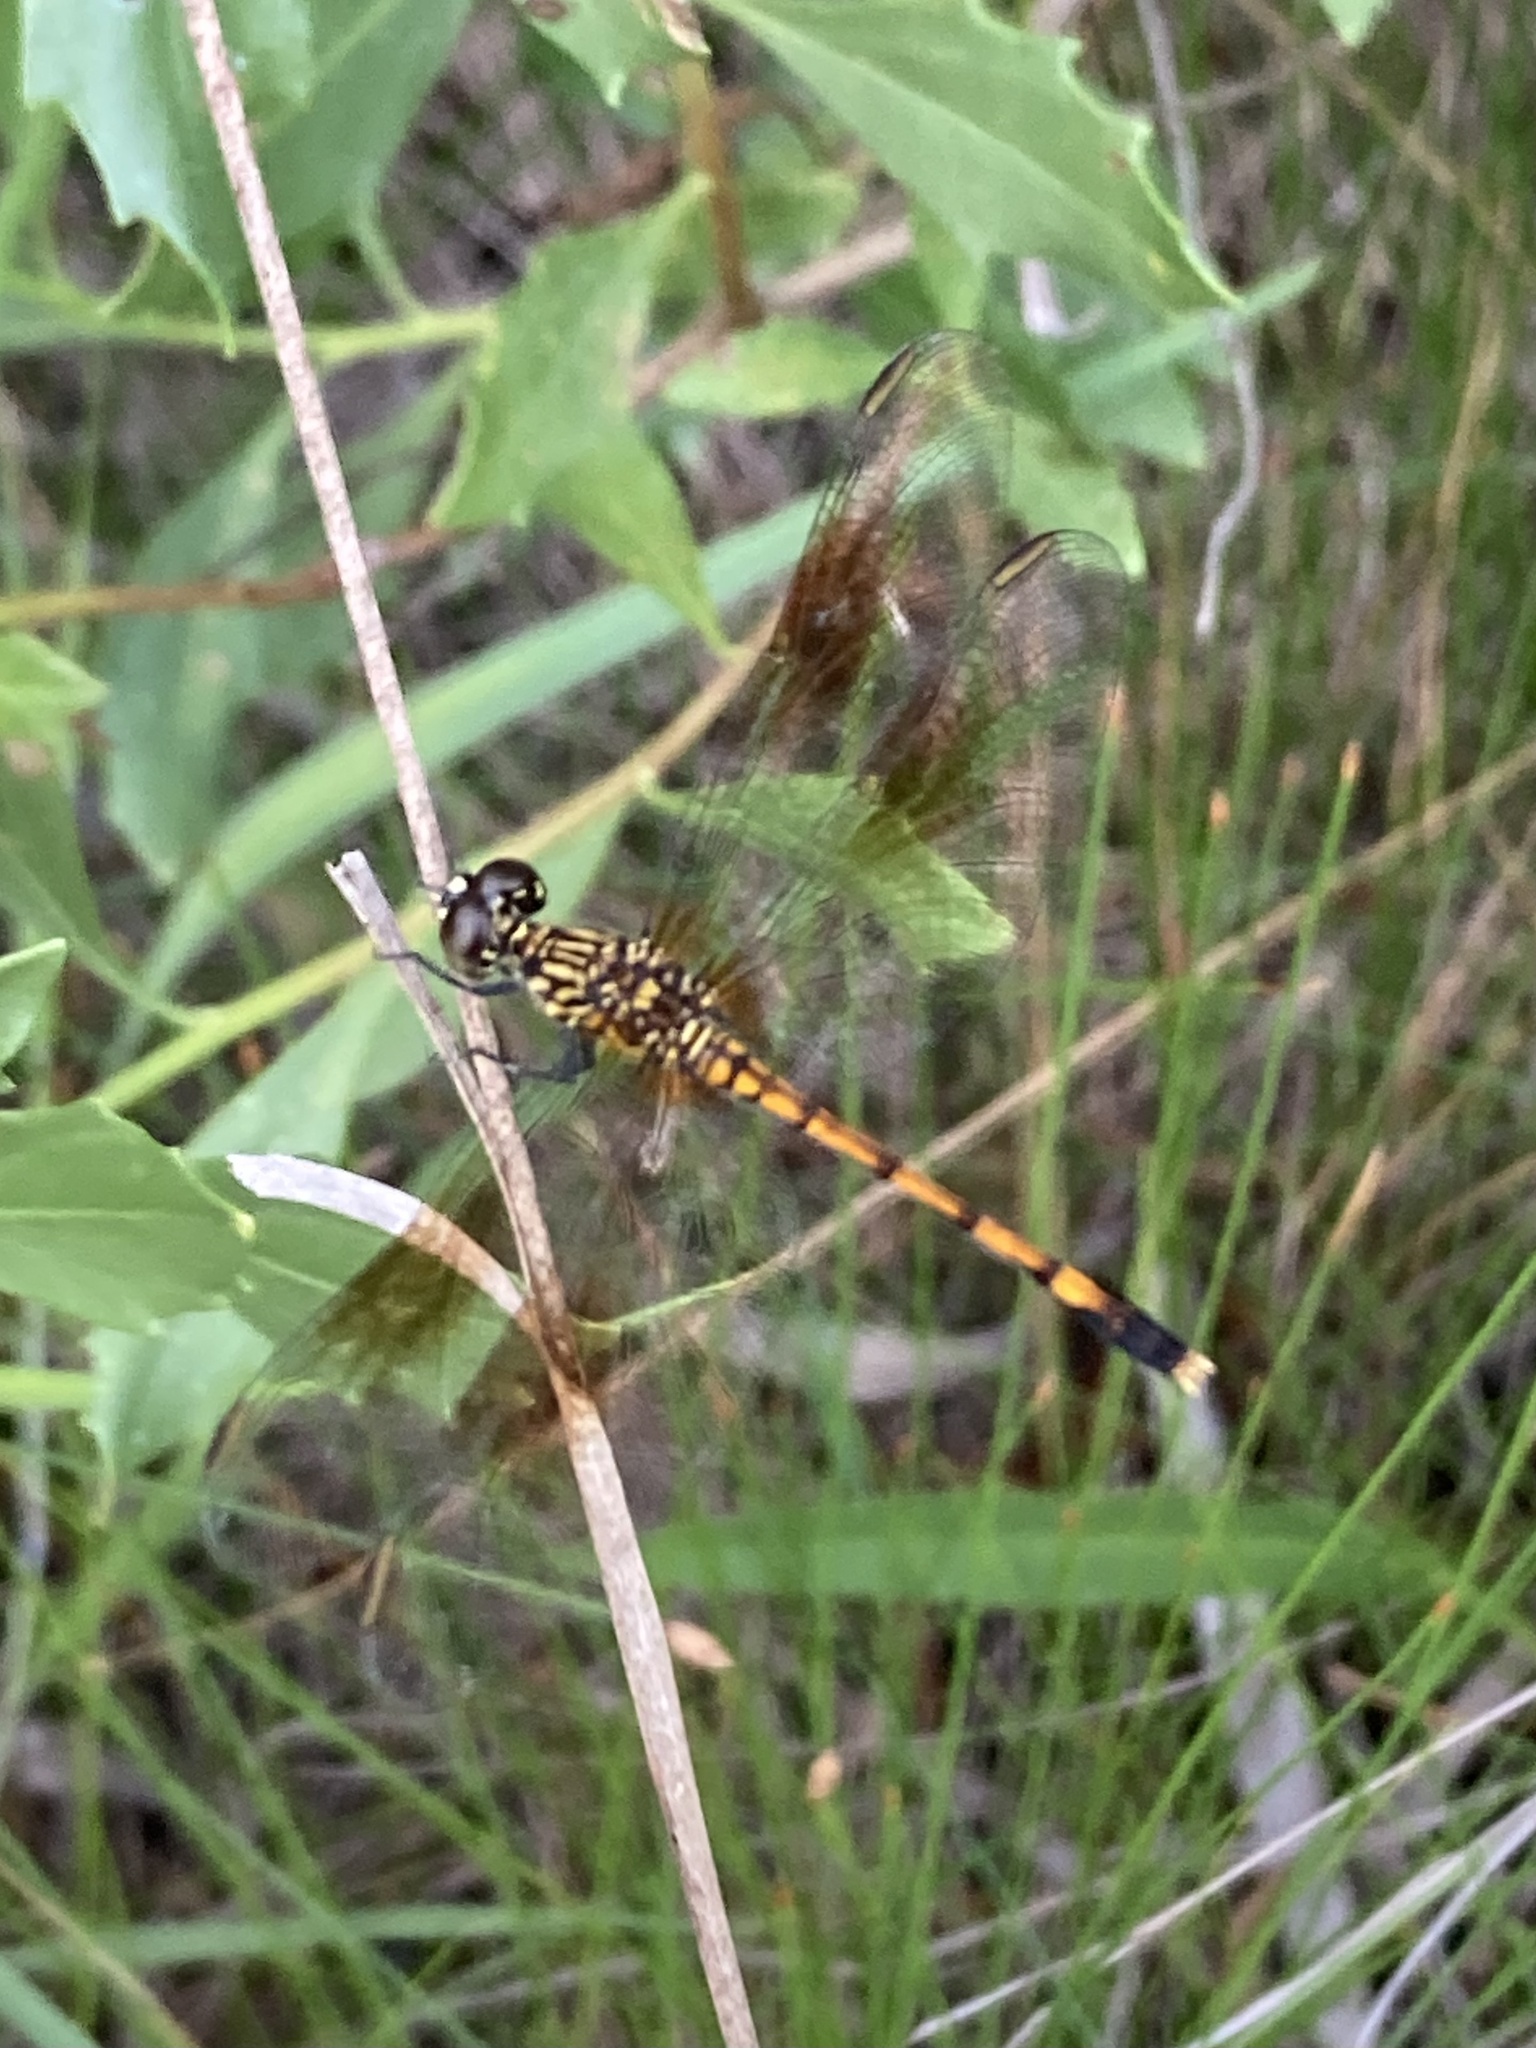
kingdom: Animalia
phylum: Arthropoda
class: Insecta
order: Odonata
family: Libellulidae
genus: Erythrodiplax
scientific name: Erythrodiplax berenice
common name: Seaside dragonlet
